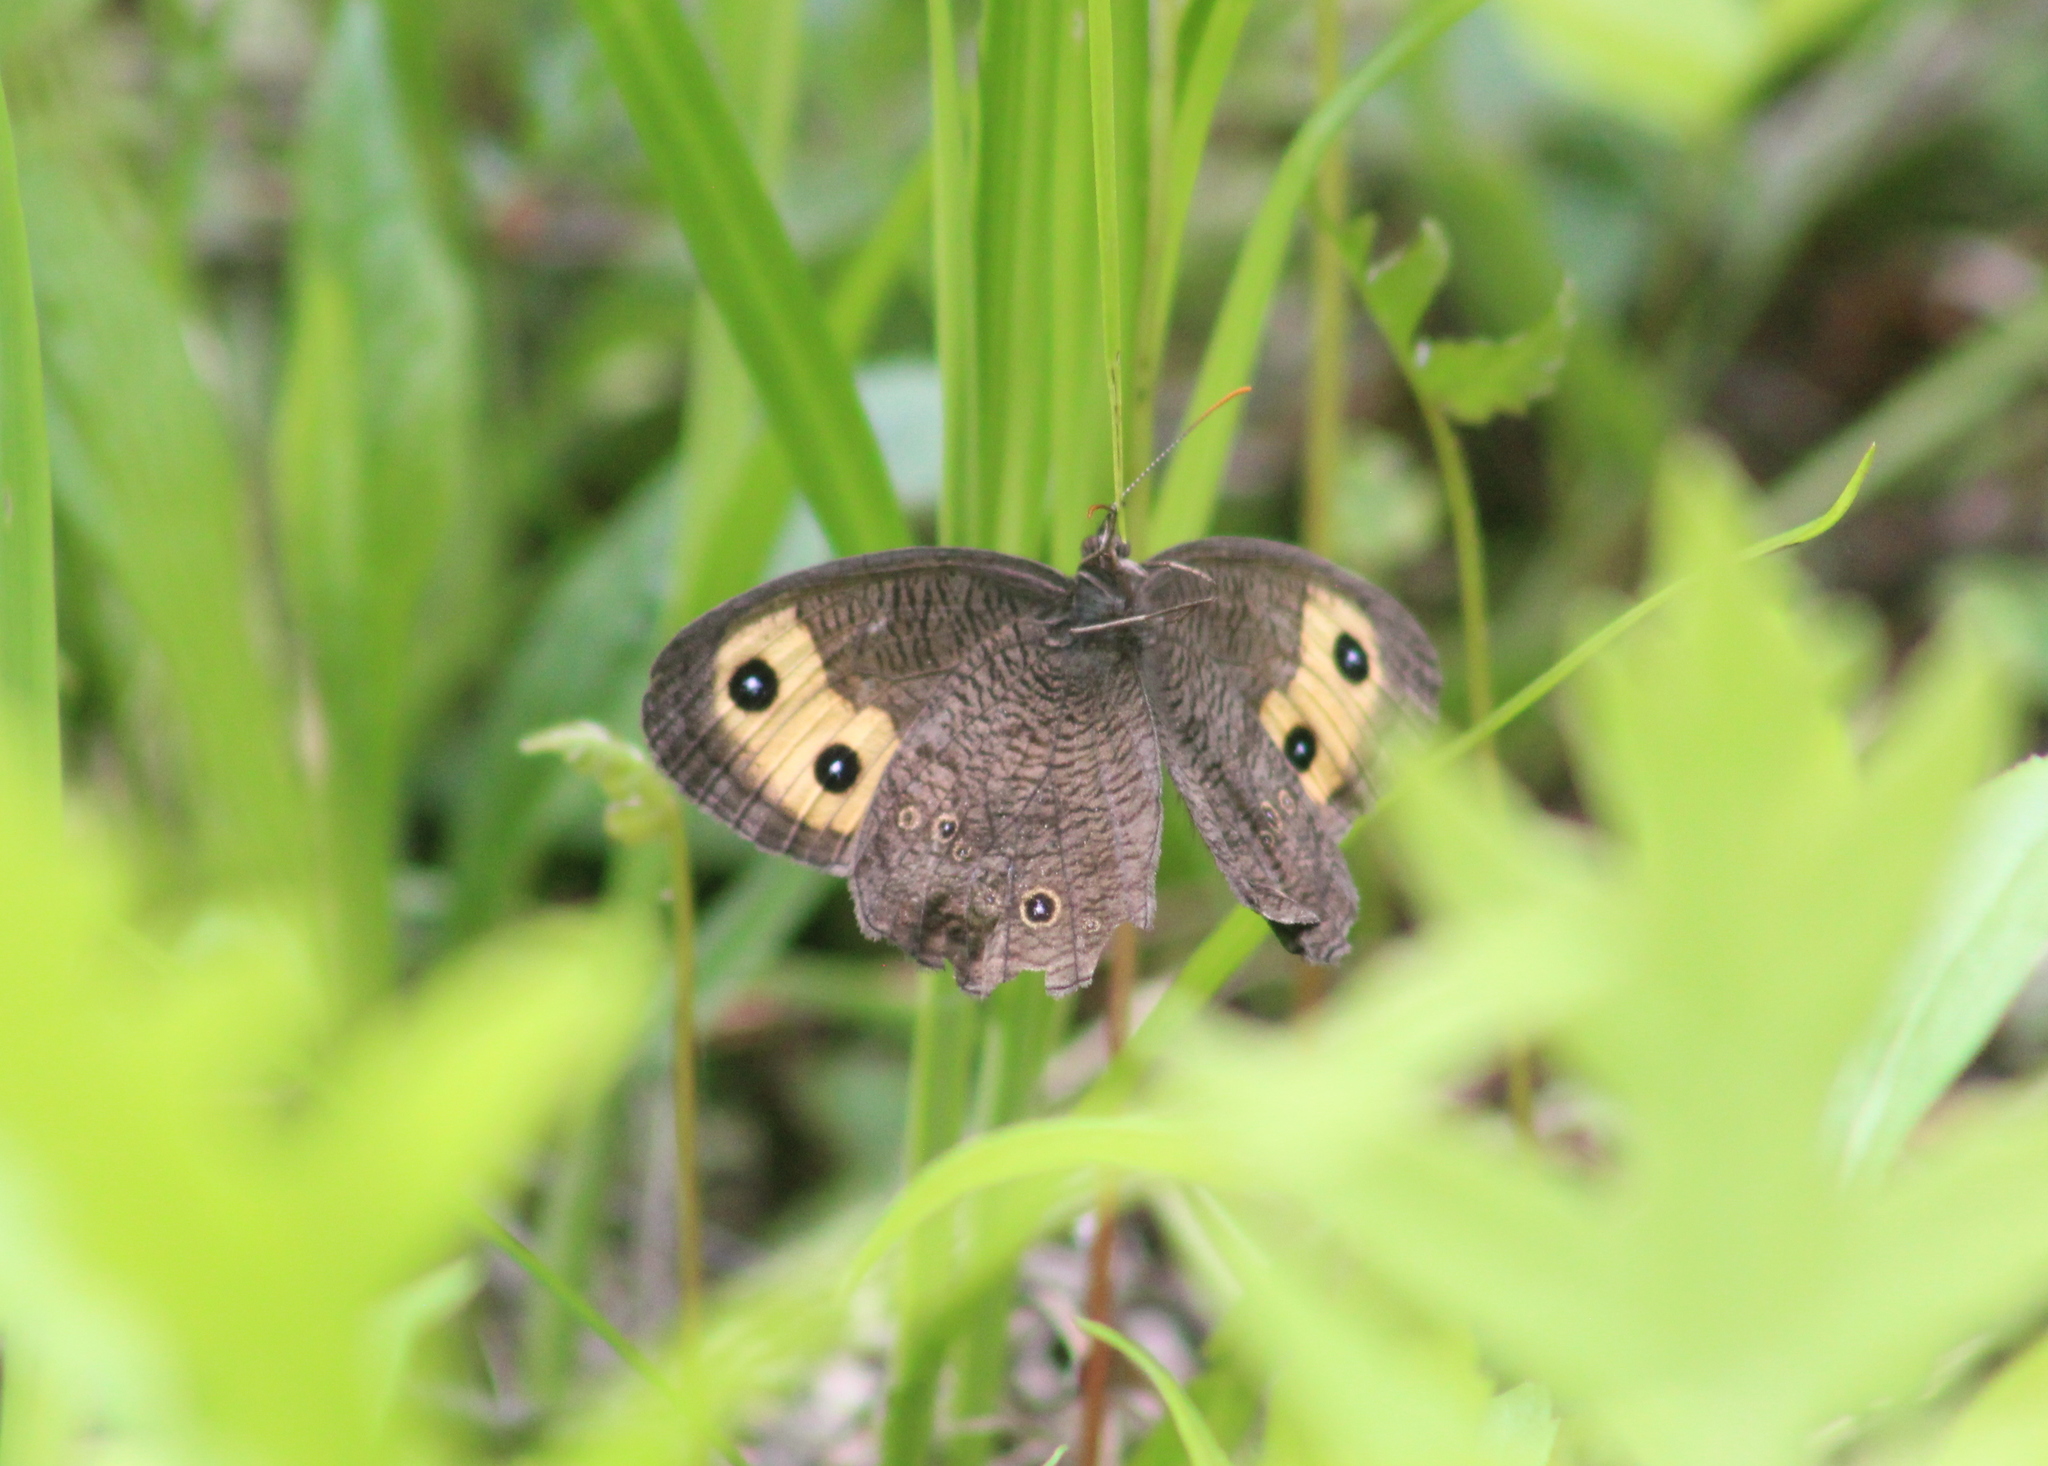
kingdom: Animalia
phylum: Arthropoda
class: Insecta
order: Lepidoptera
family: Nymphalidae
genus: Cercyonis
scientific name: Cercyonis pegala
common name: Common wood-nymph
